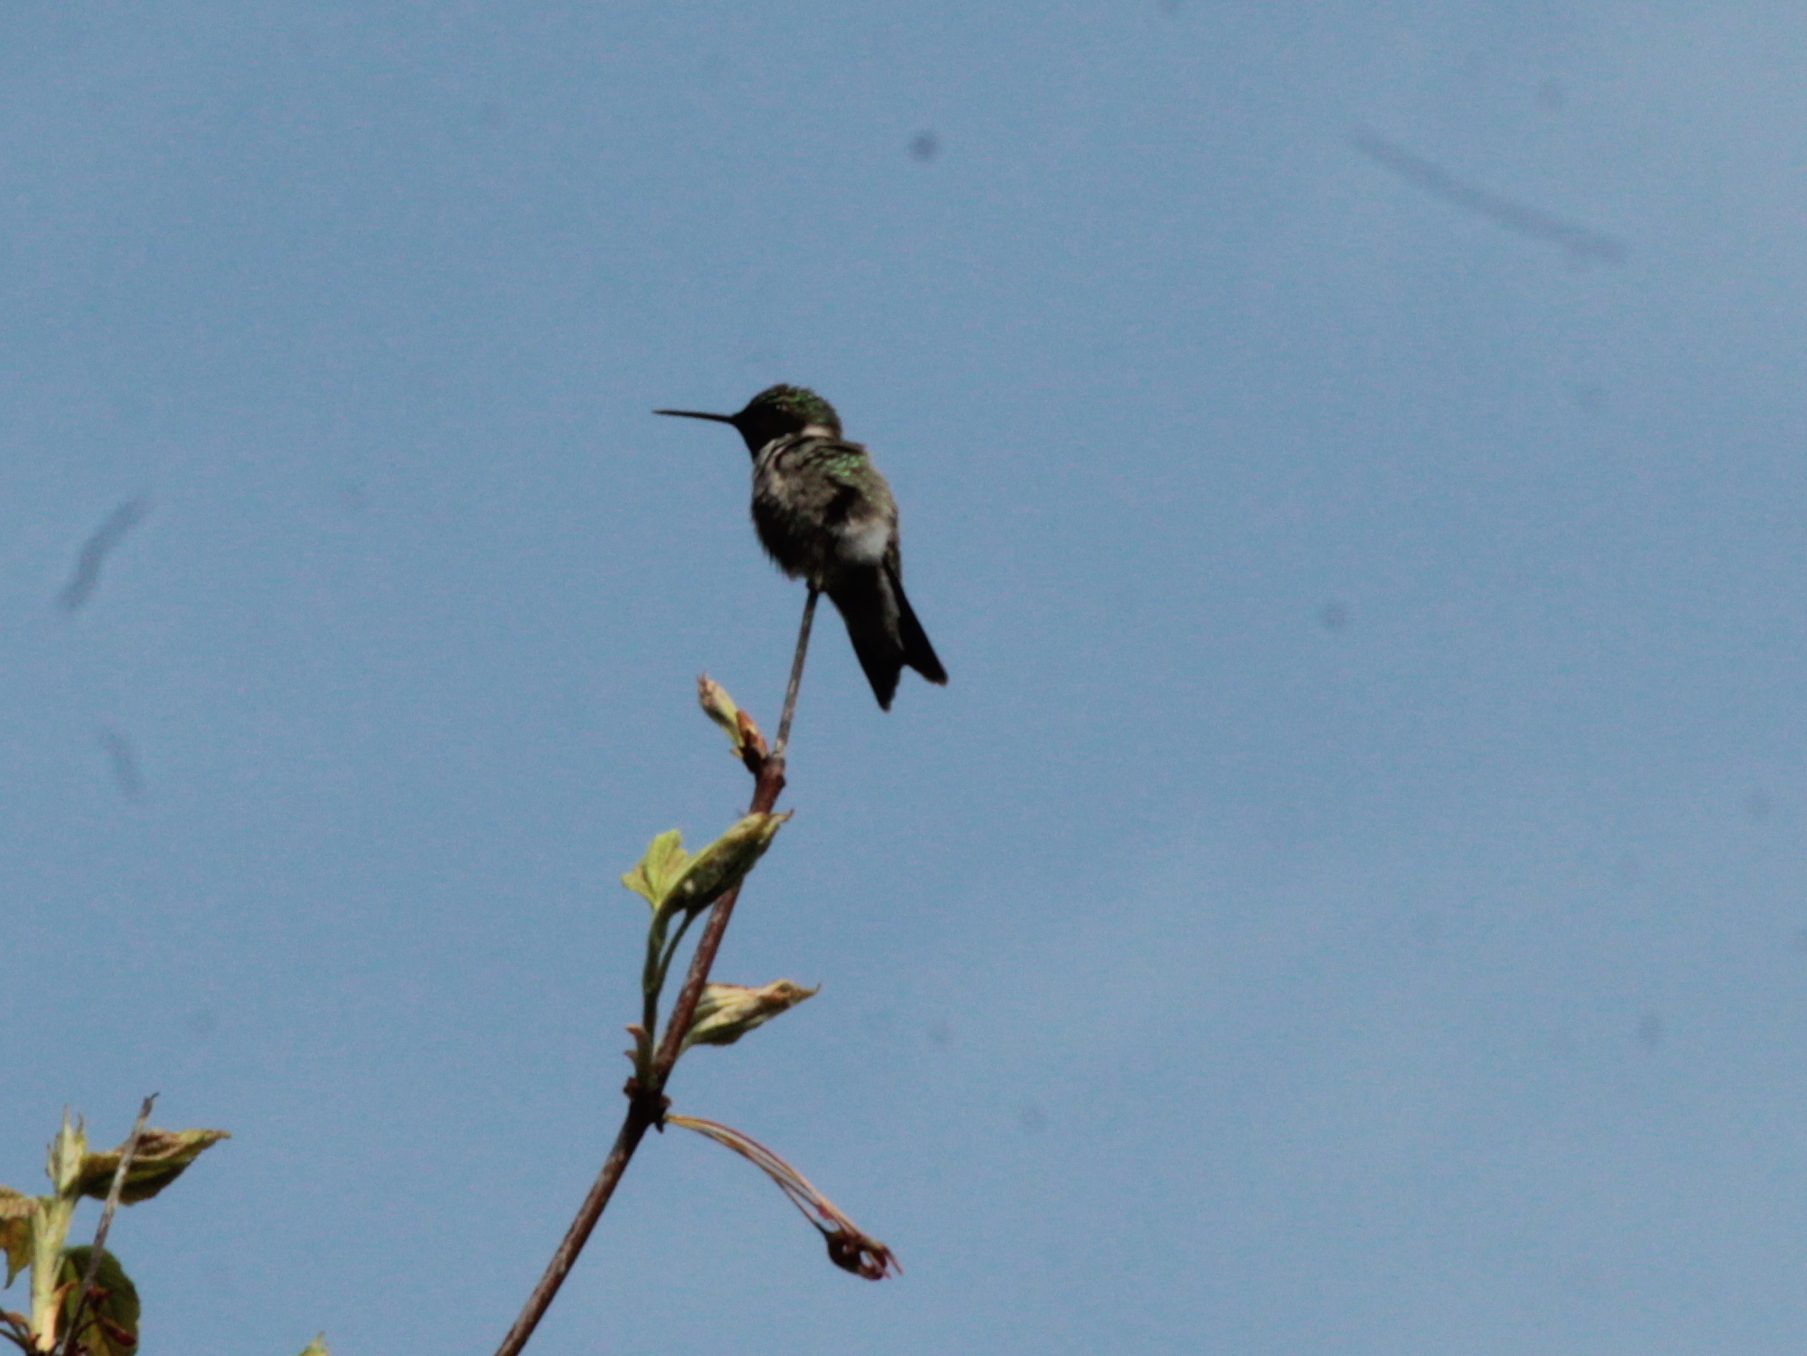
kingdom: Animalia
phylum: Chordata
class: Aves
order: Apodiformes
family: Trochilidae
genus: Archilochus
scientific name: Archilochus colubris
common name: Ruby-throated hummingbird
